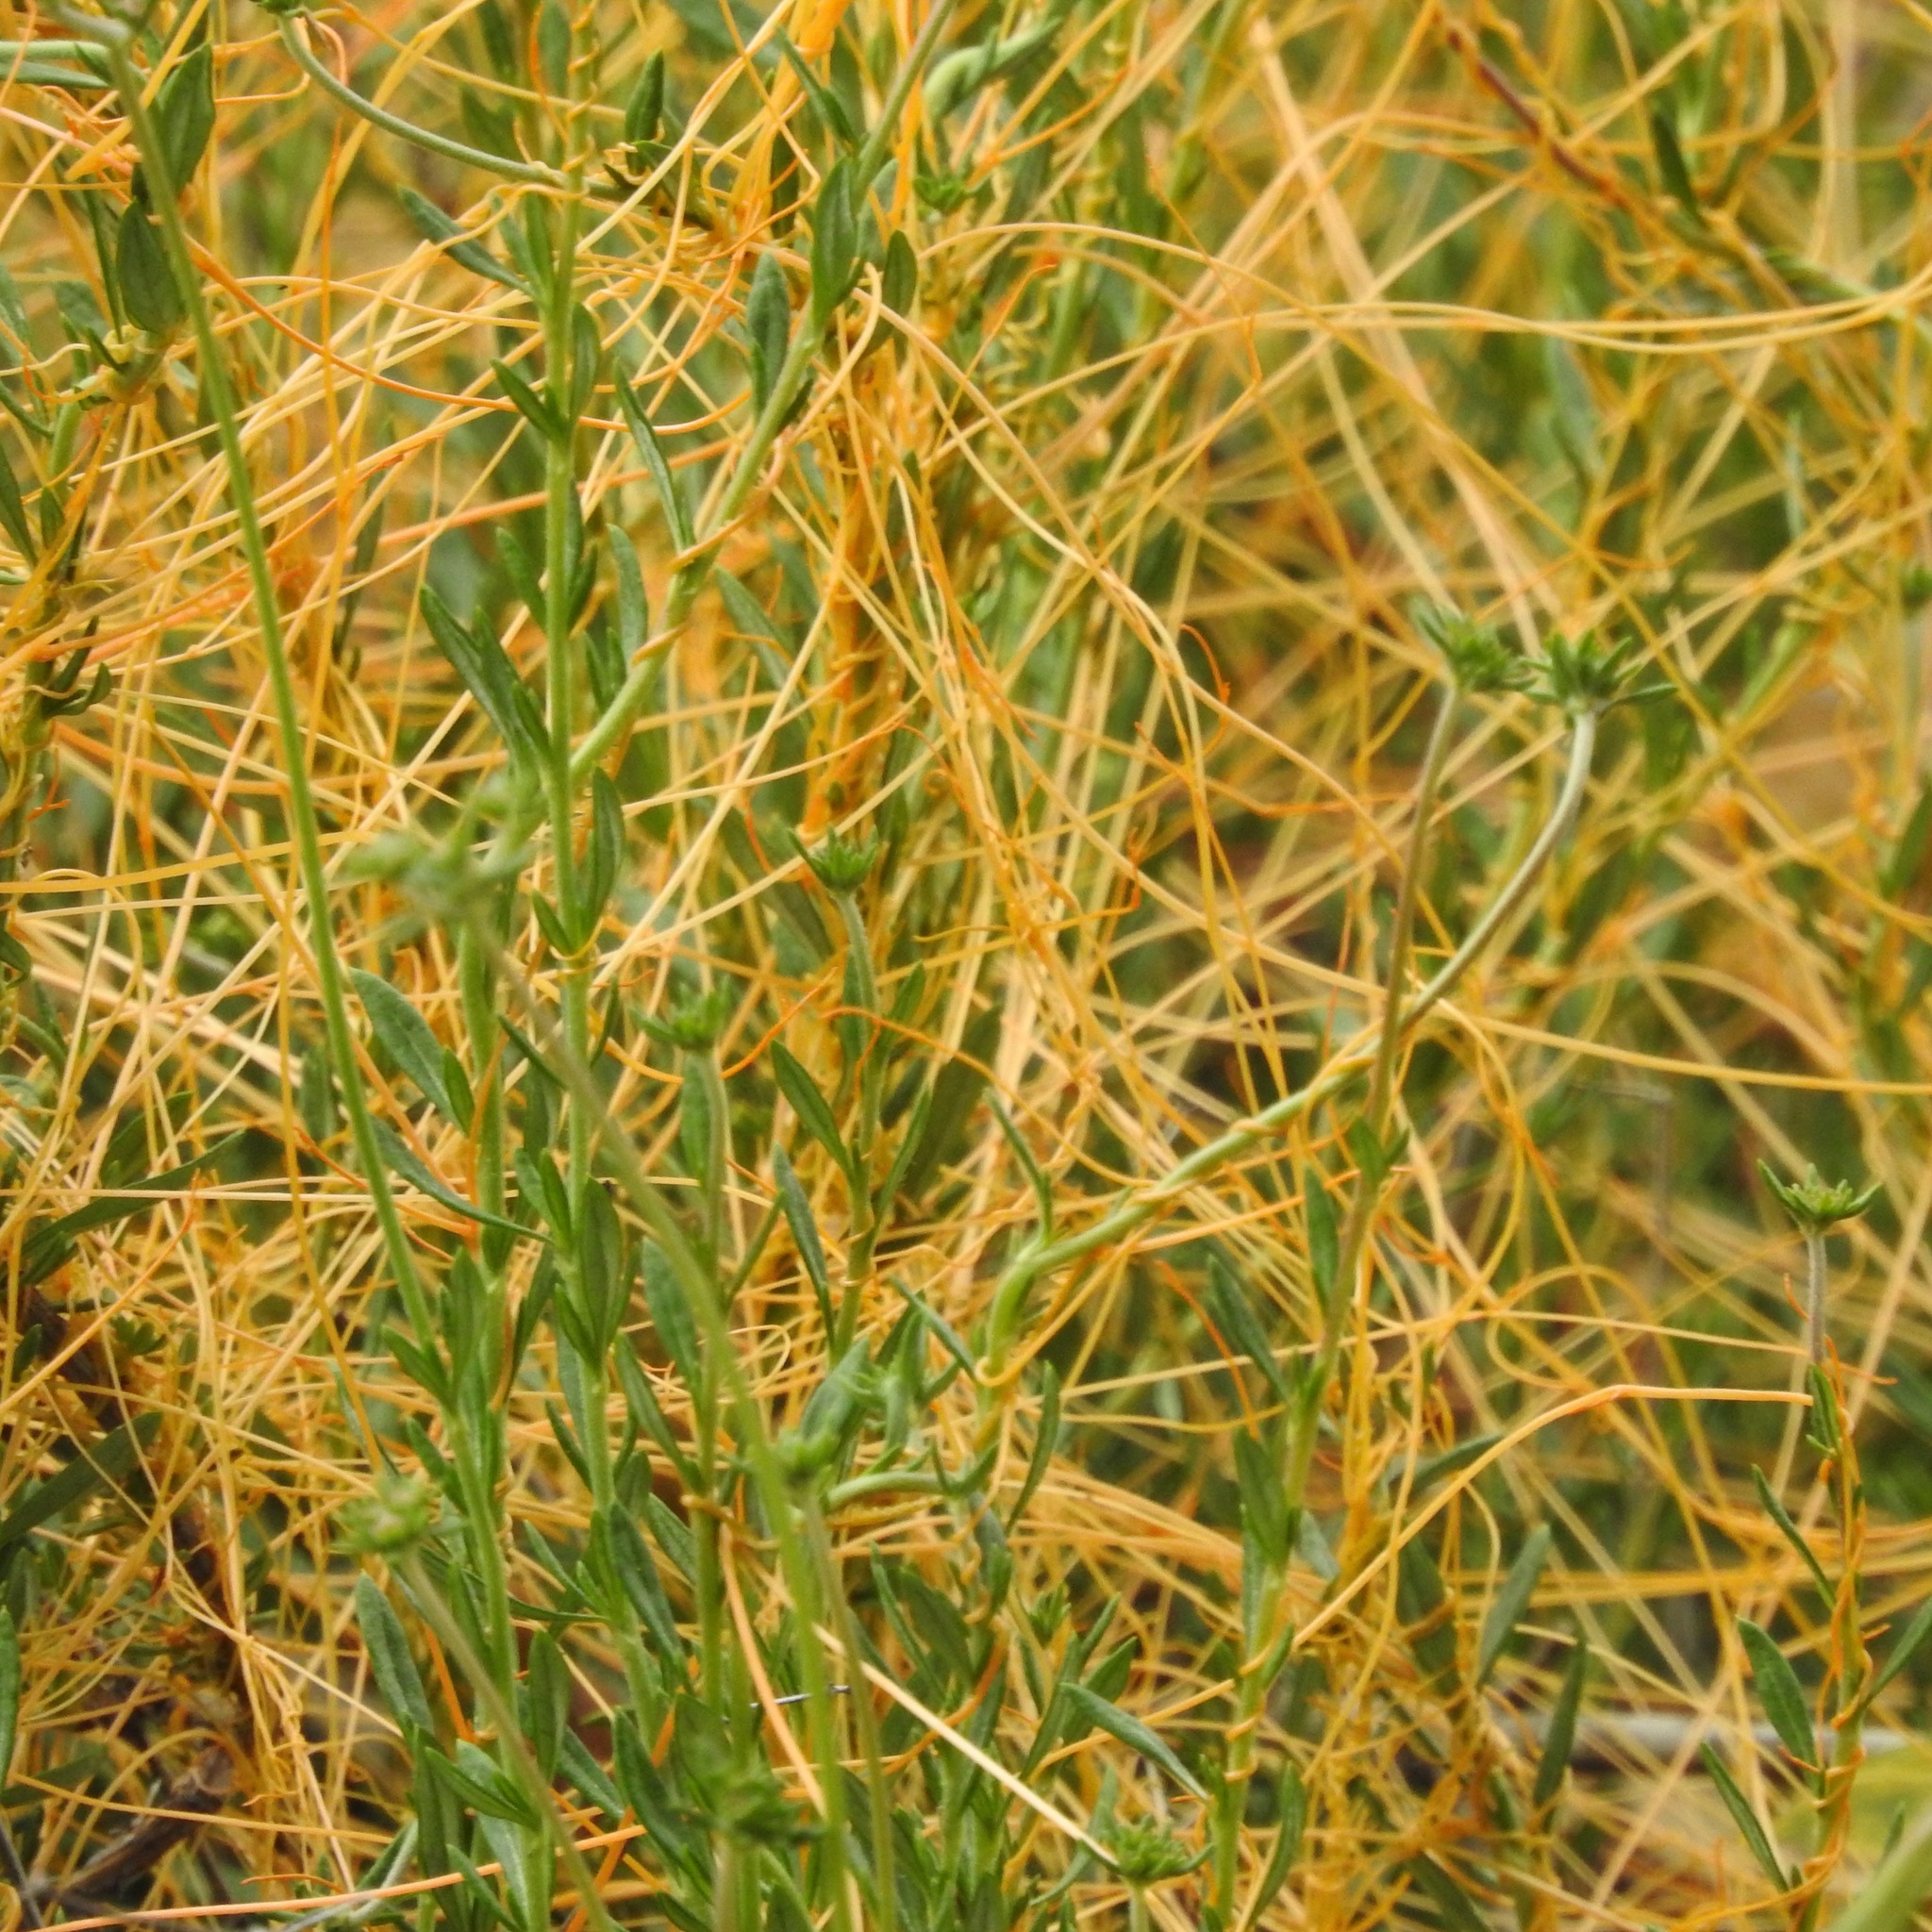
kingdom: Plantae
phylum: Tracheophyta
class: Magnoliopsida
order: Caryophyllales
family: Polygonaceae
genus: Eriogonum
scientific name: Eriogonum fasciculatum
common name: California wild buckwheat
